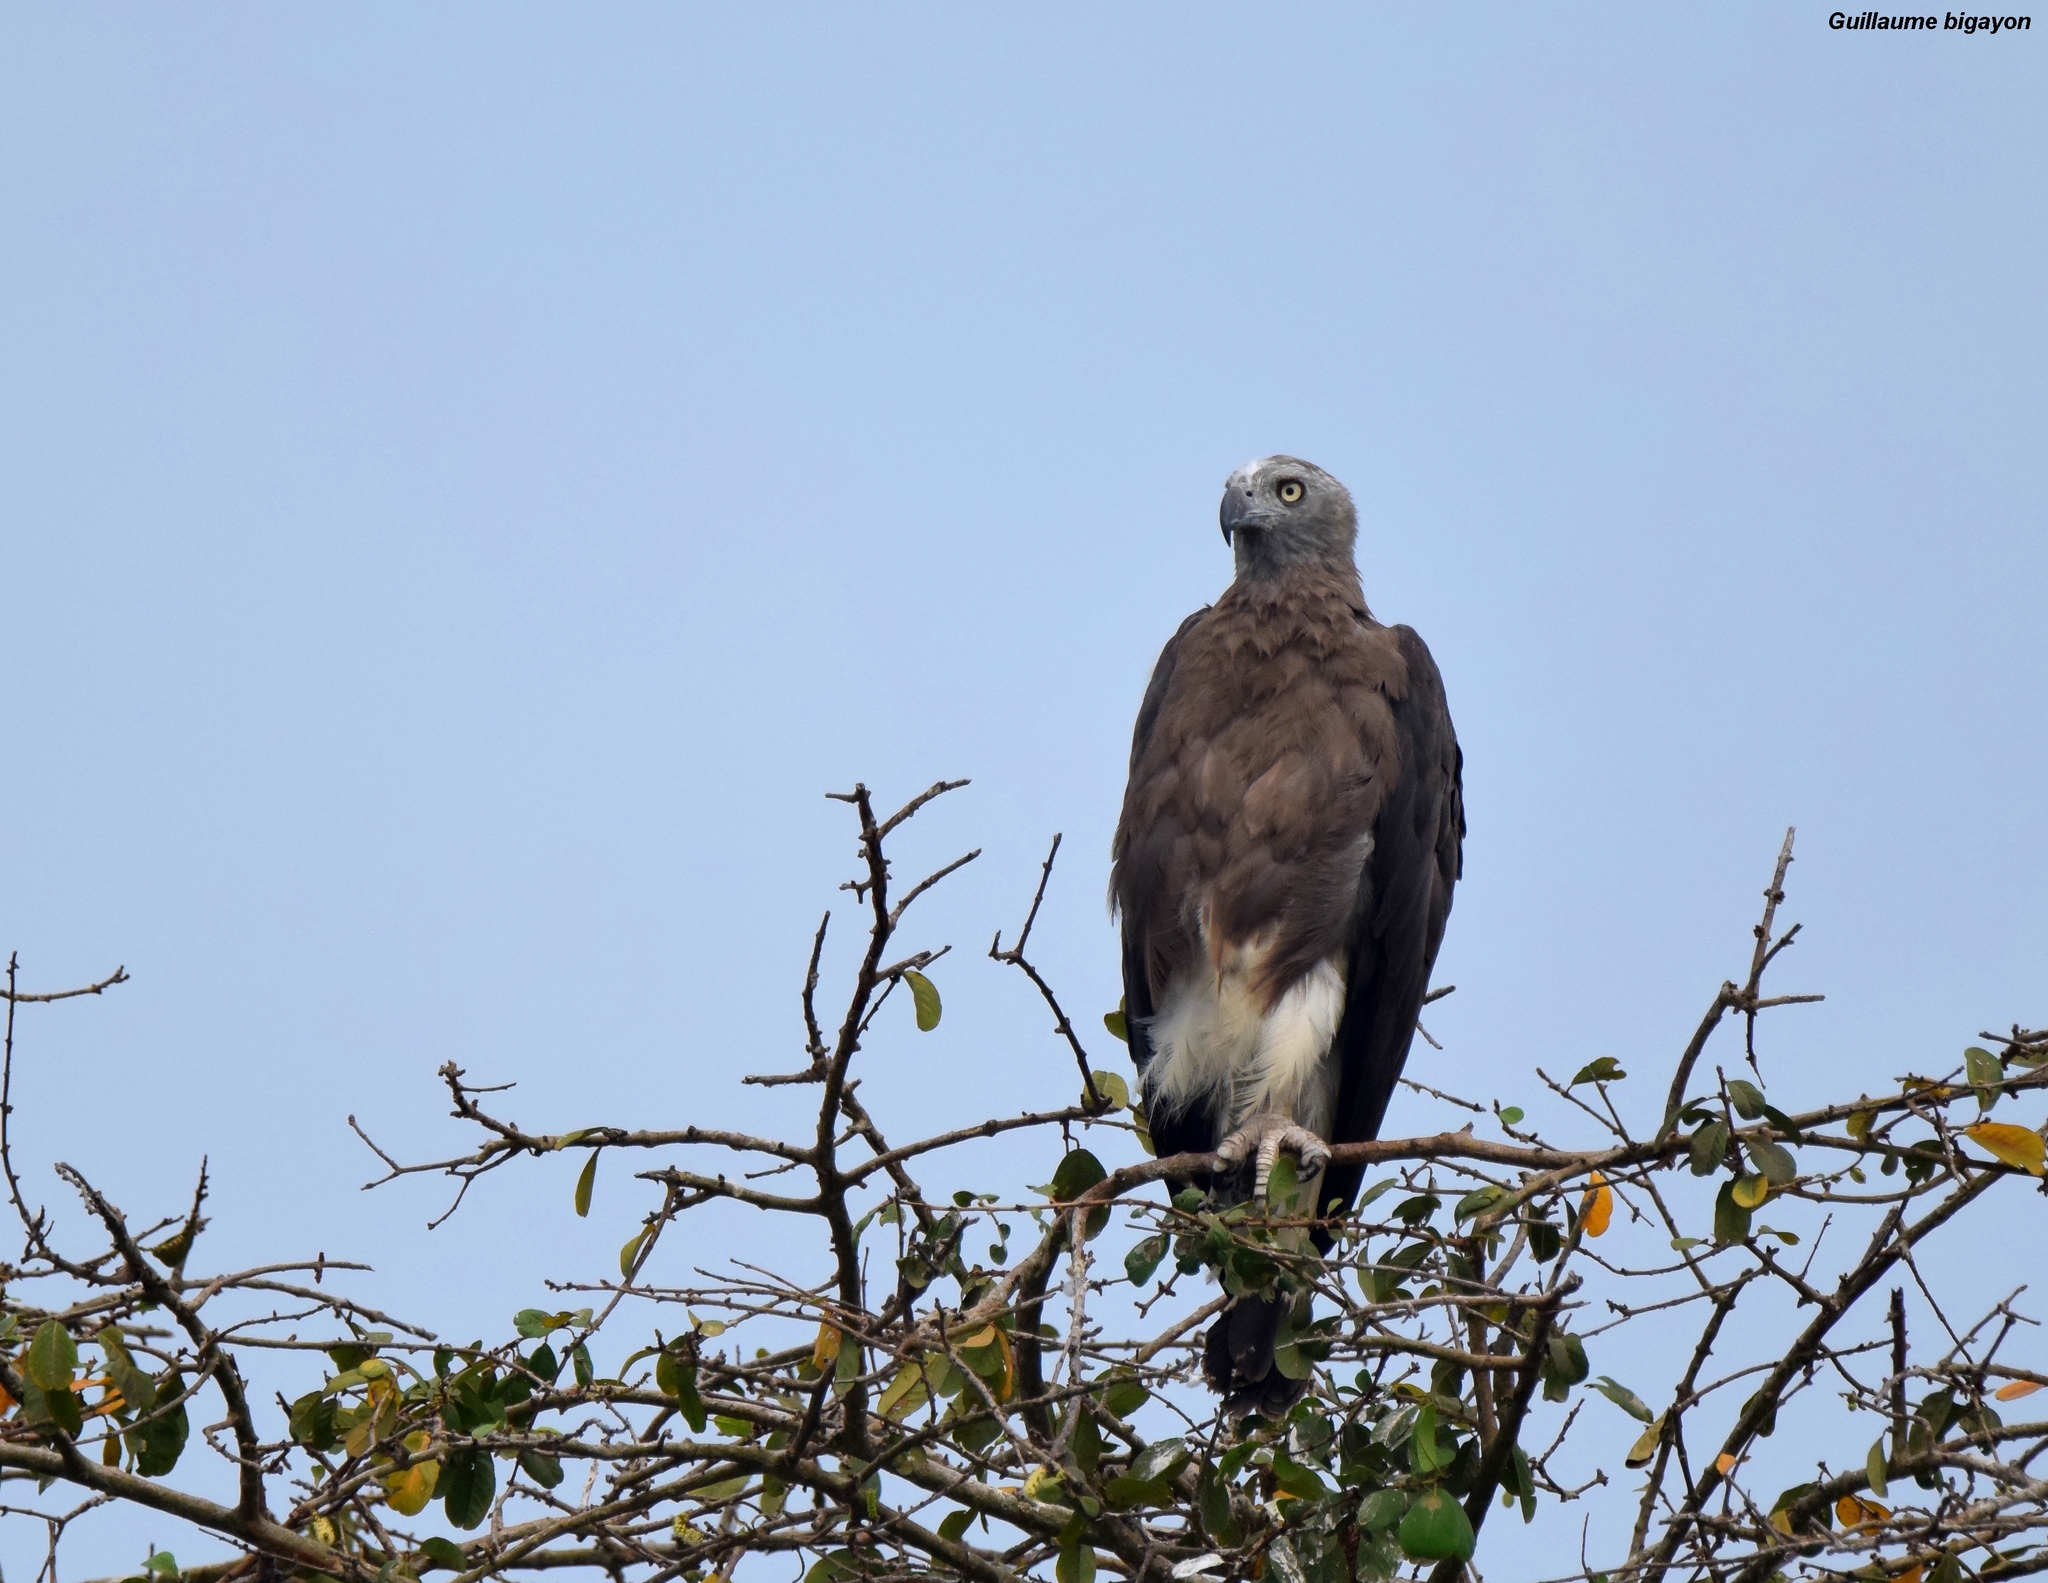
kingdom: Animalia
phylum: Chordata
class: Aves
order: Accipitriformes
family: Accipitridae
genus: Icthyophaga
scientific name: Icthyophaga ichthyaetus
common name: Grey-headed fish eagle
